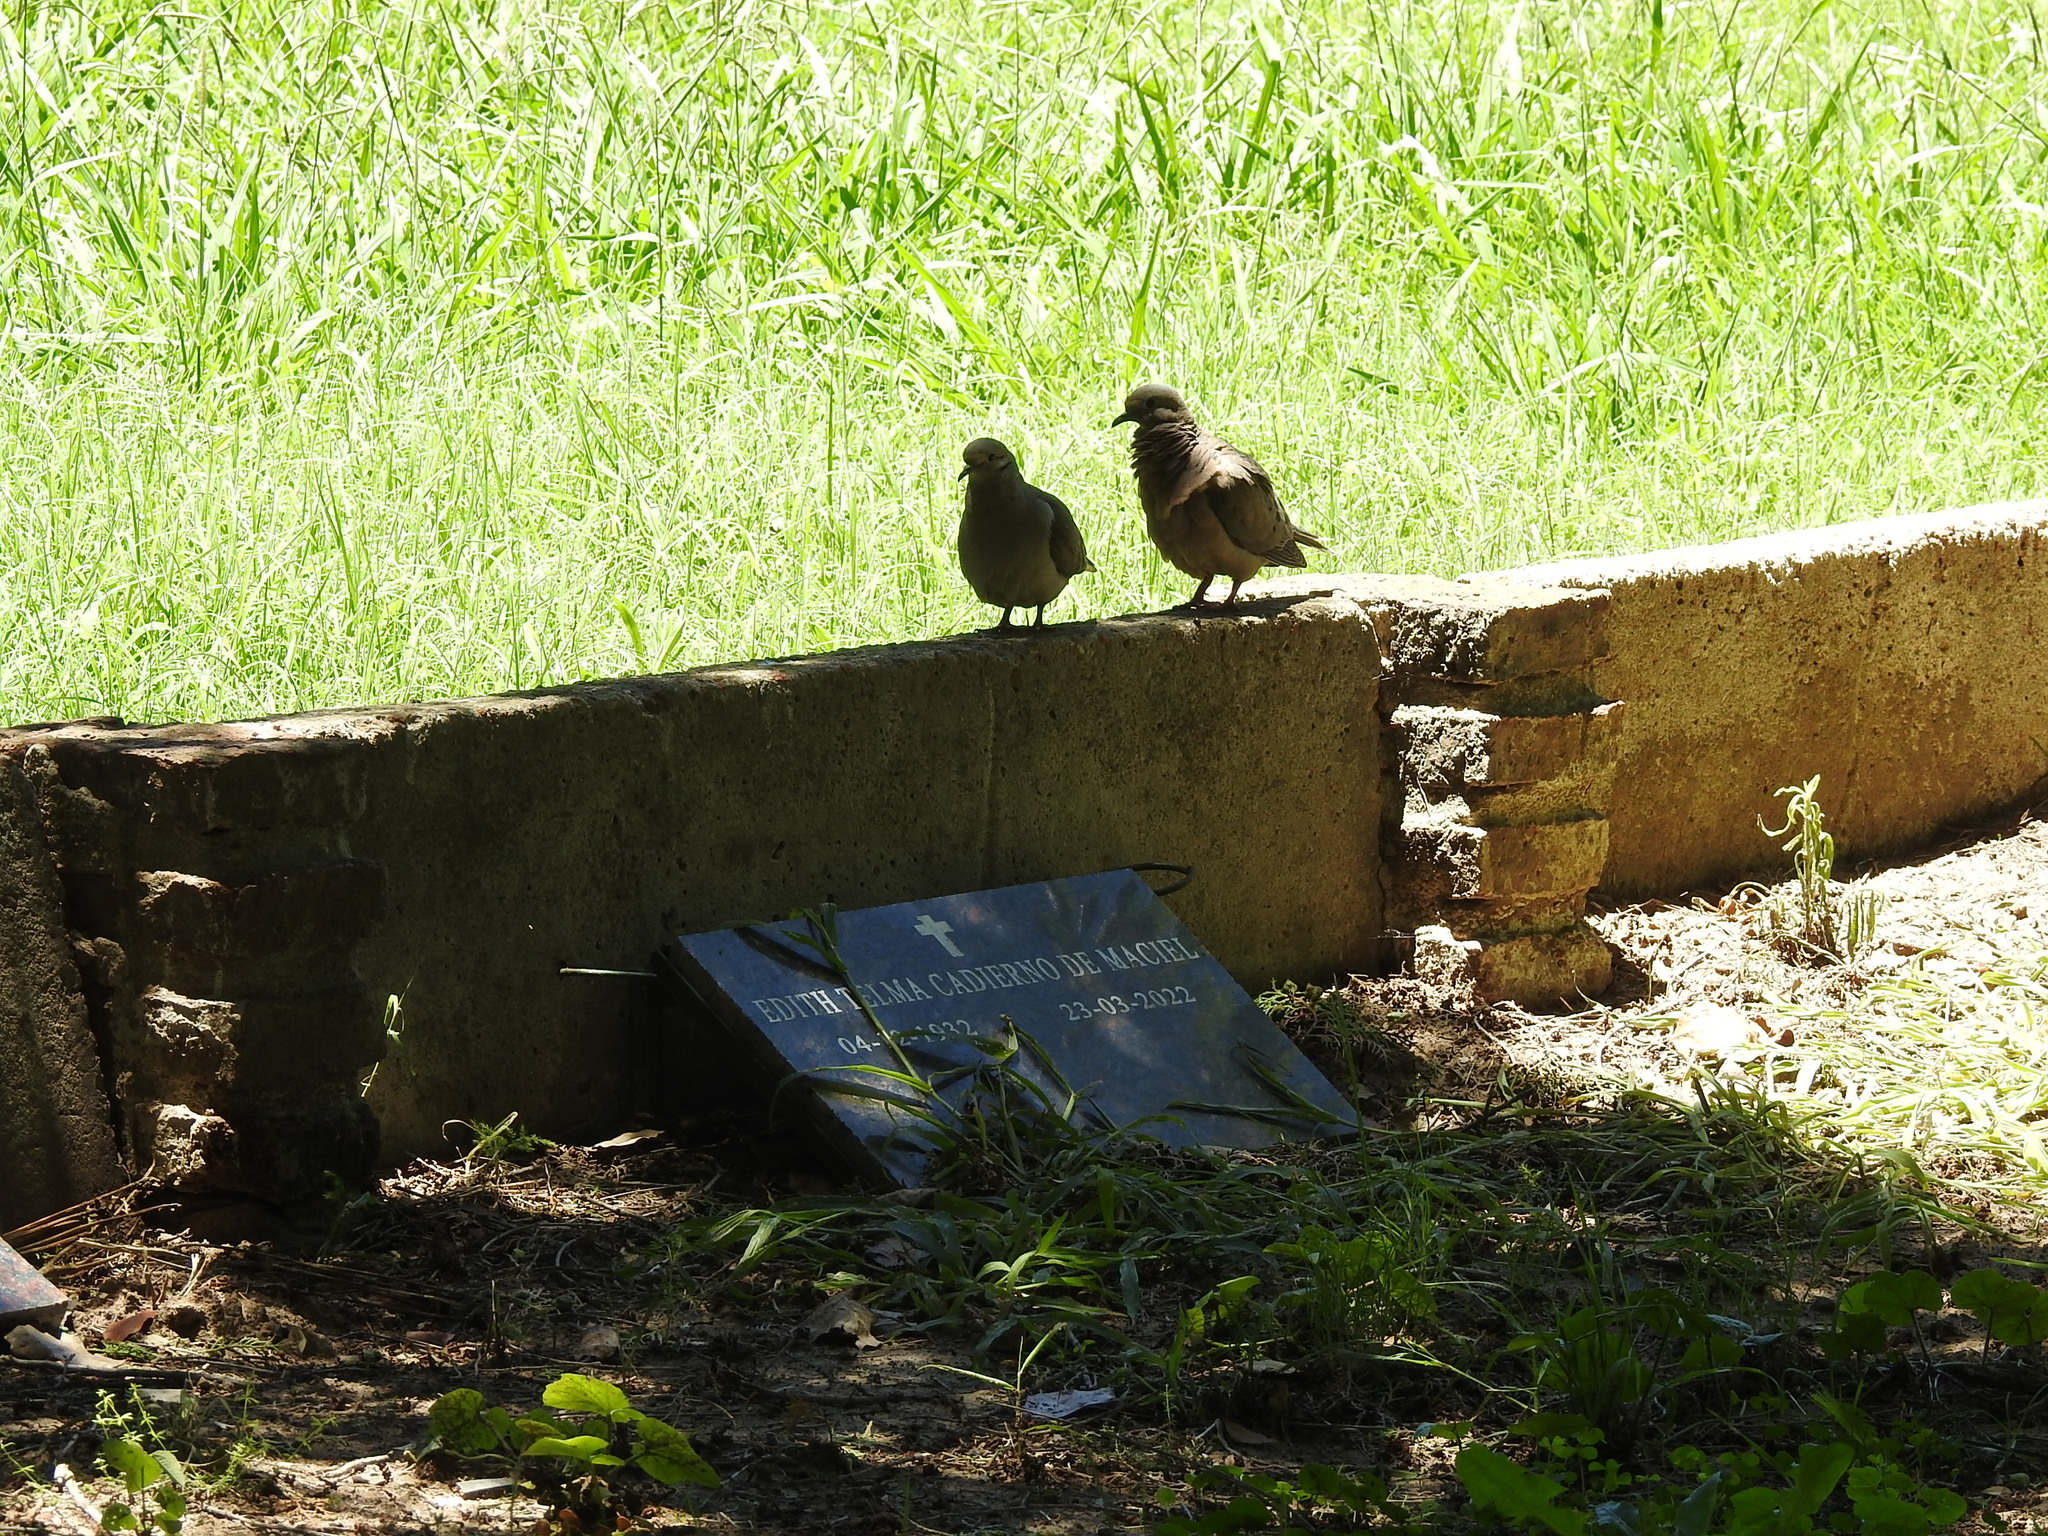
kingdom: Animalia
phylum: Chordata
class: Aves
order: Columbiformes
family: Columbidae
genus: Zenaida
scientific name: Zenaida auriculata
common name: Eared dove
